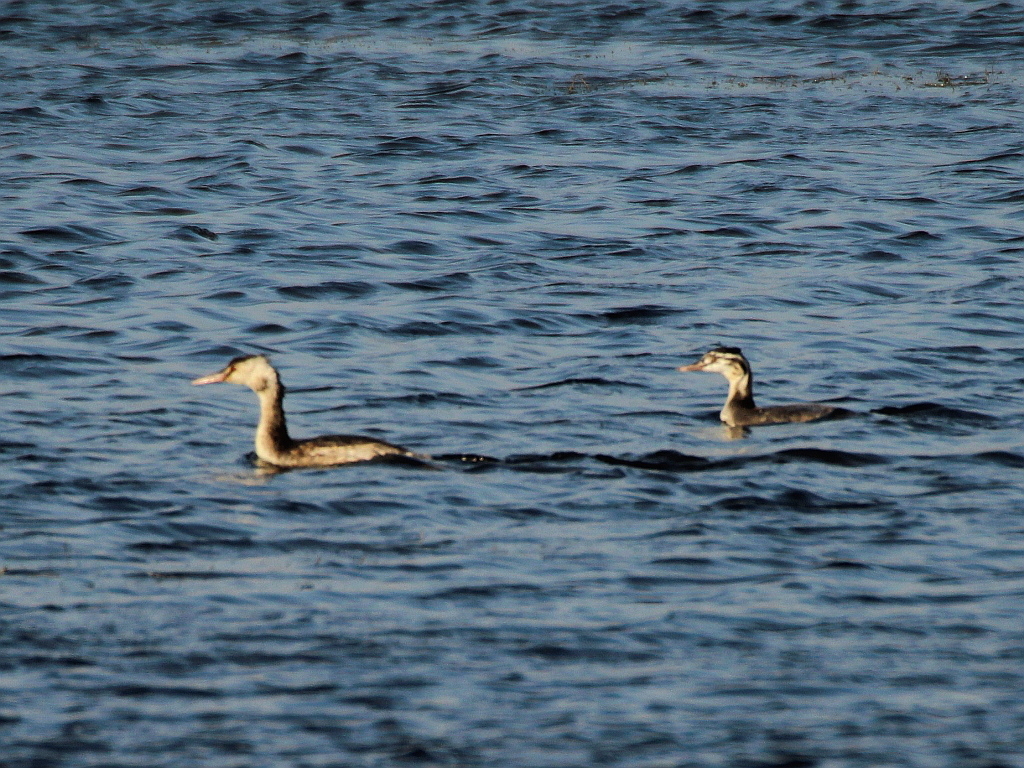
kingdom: Animalia
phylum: Chordata
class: Aves
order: Podicipediformes
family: Podicipedidae
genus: Podiceps
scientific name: Podiceps cristatus
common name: Great crested grebe
